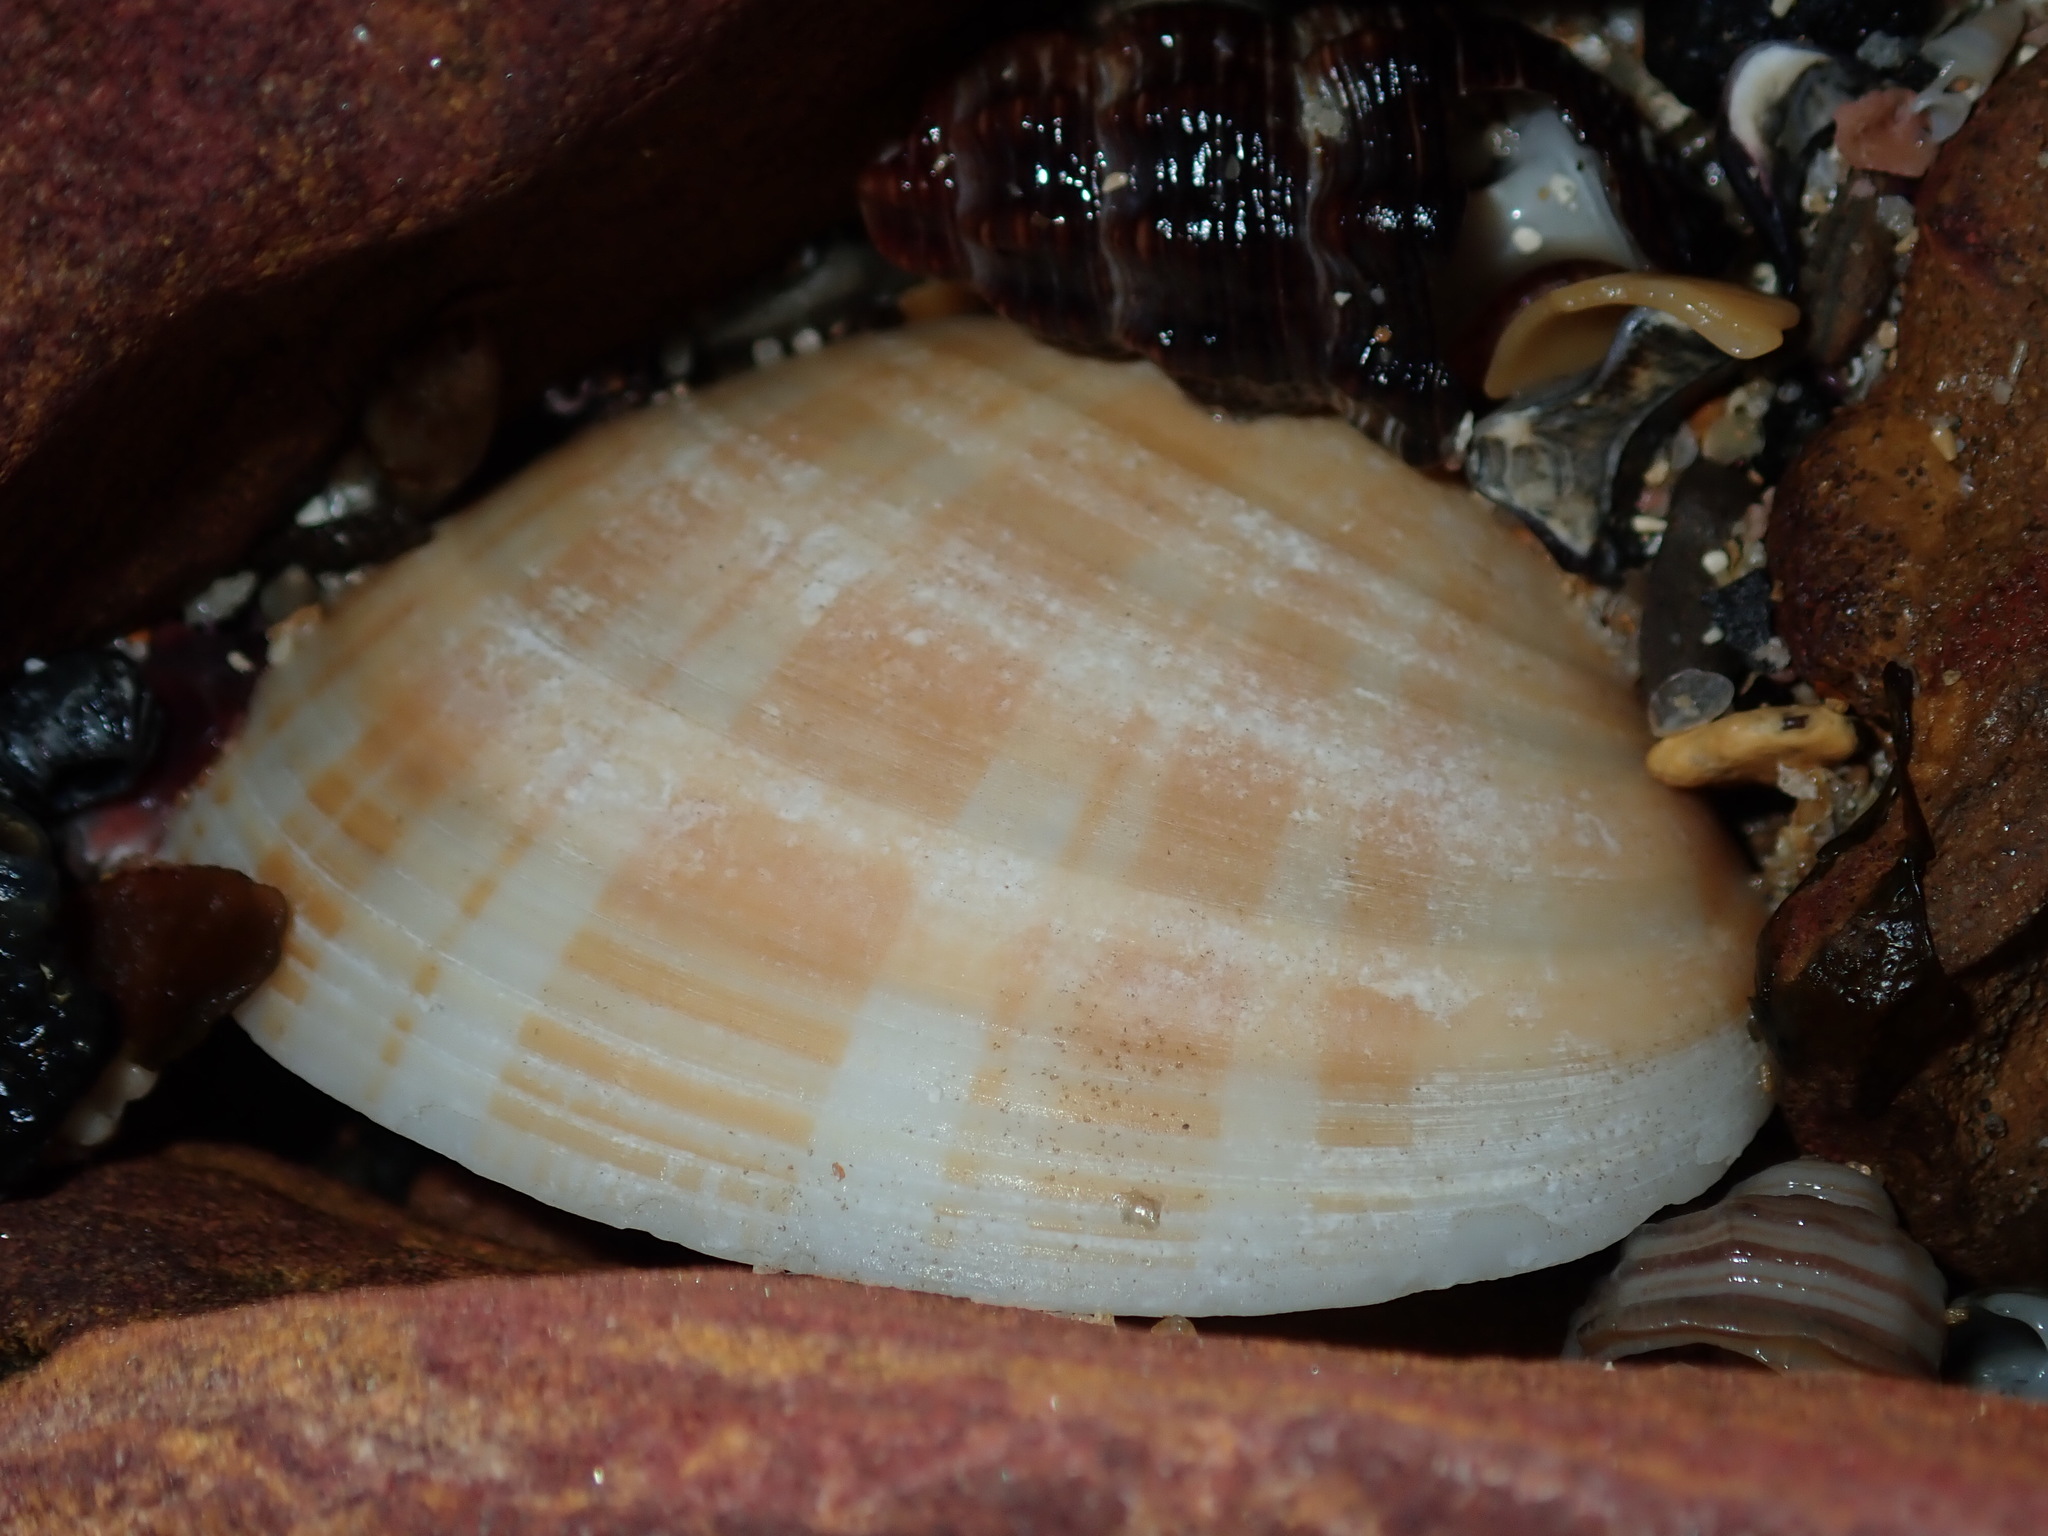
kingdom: Animalia
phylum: Mollusca
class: Bivalvia
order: Venerida
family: Veneridae
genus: Bassina
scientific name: Bassina pachyphylla
